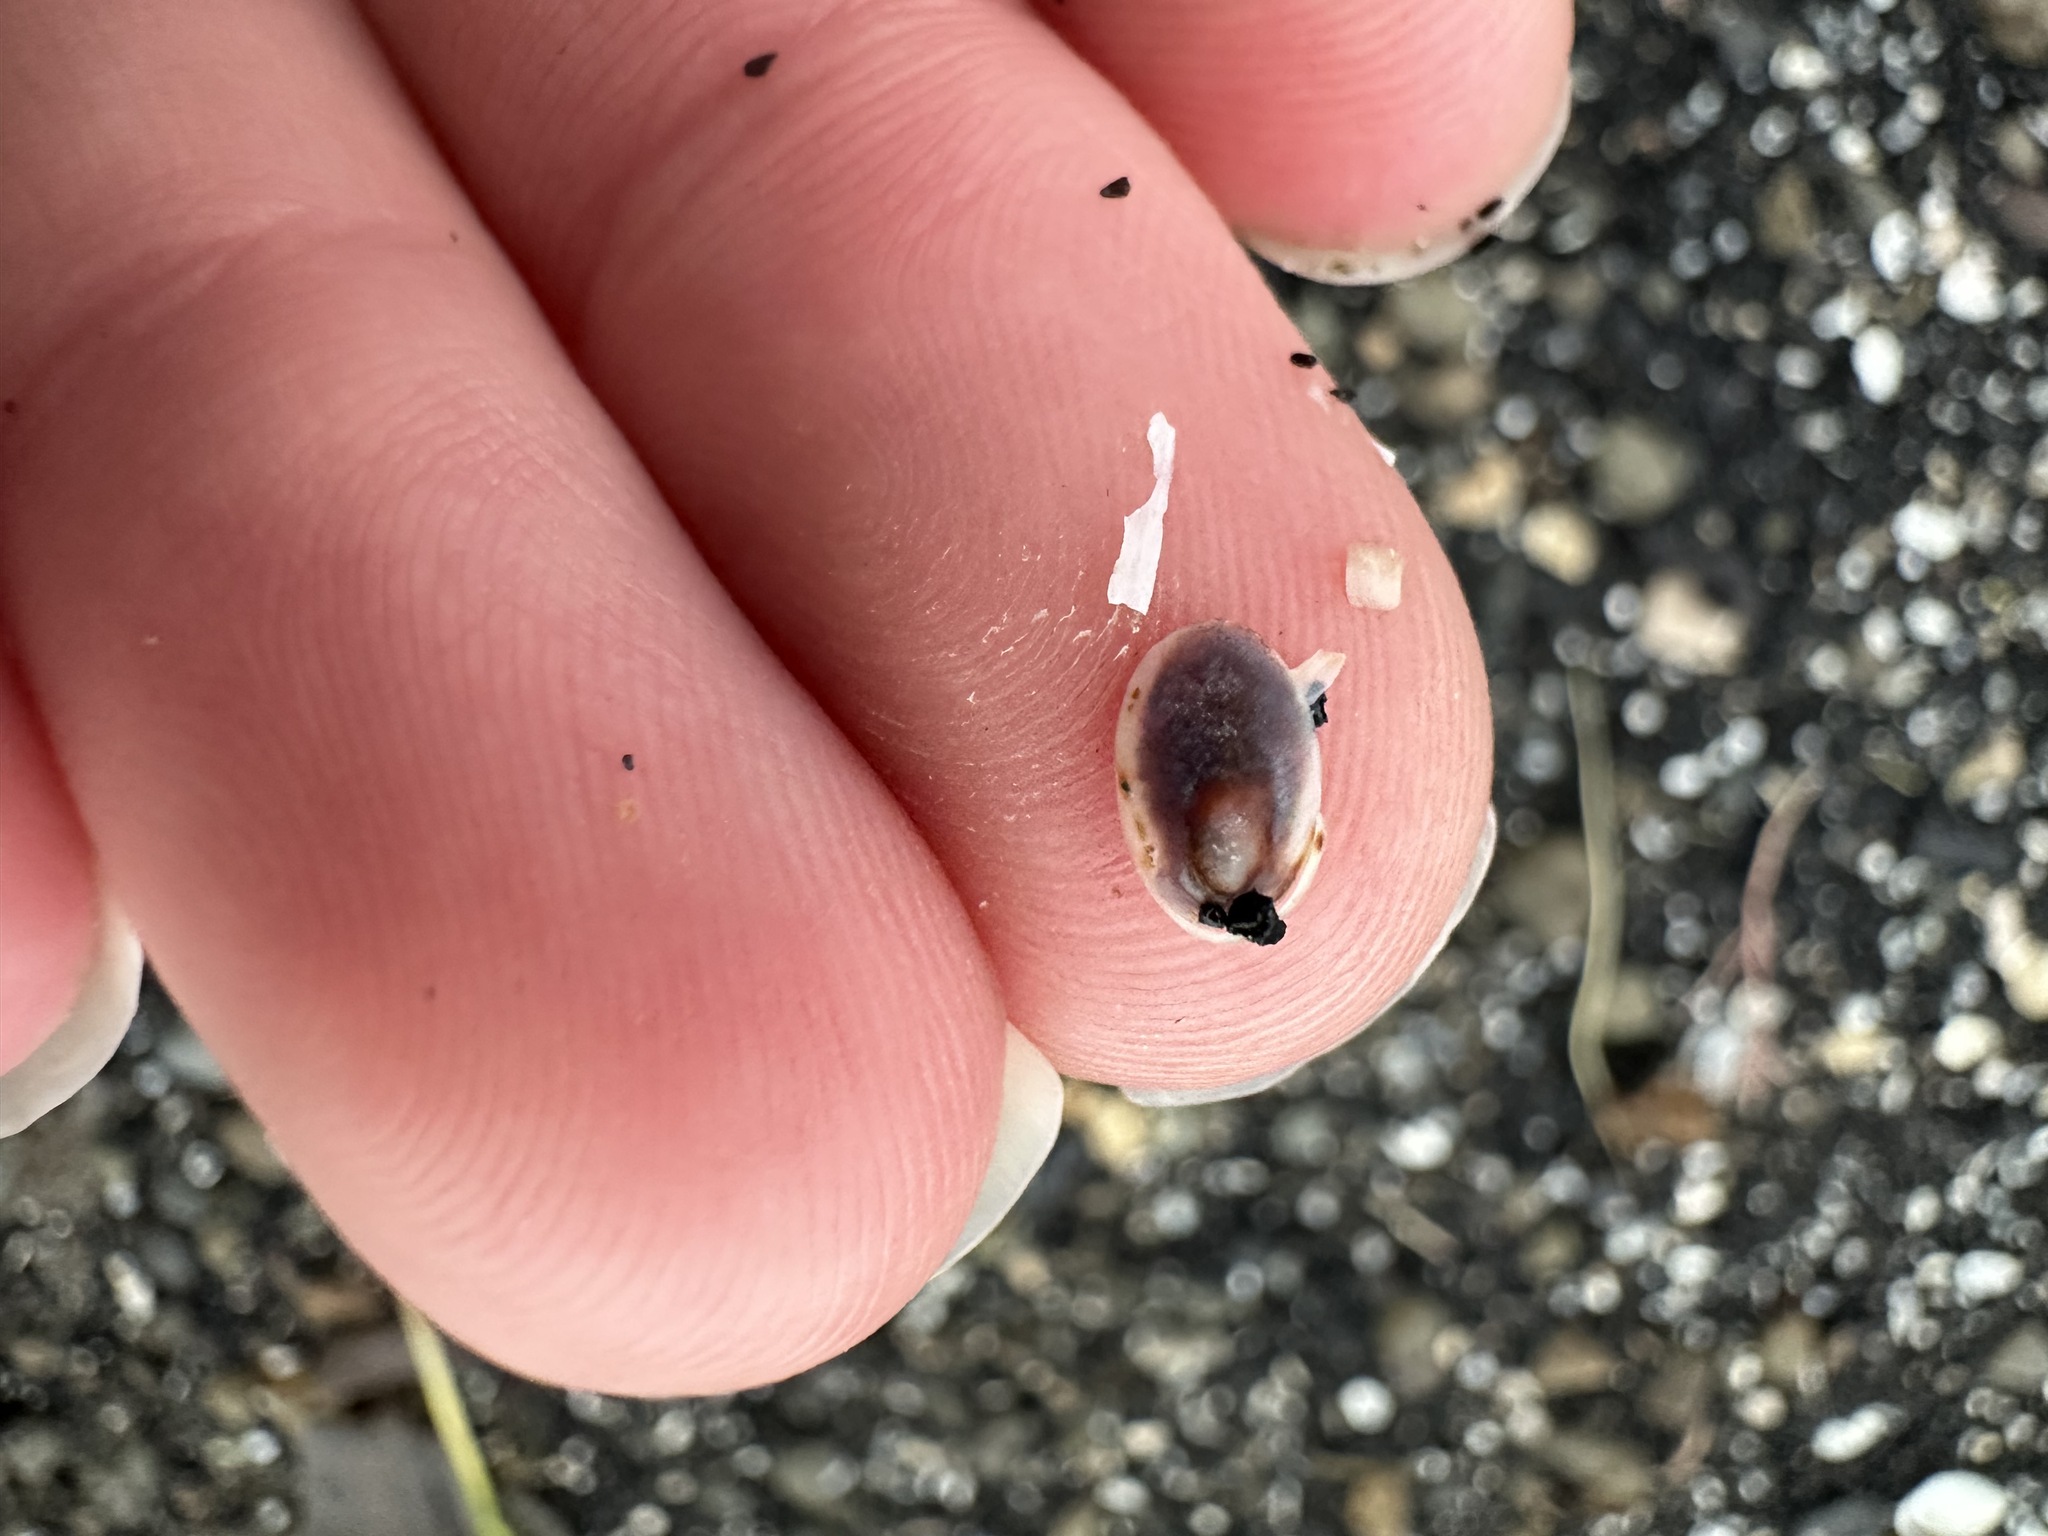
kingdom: Animalia
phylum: Mollusca
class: Gastropoda
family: Lottiidae
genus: Testudinalia
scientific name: Testudinalia testudinalis
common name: Common tortoiseshell limpet
